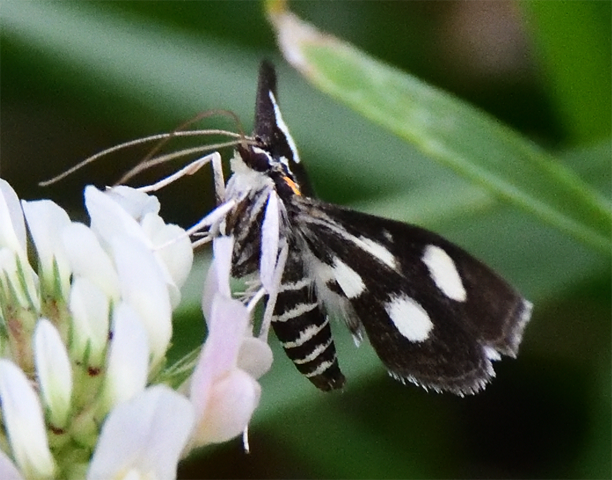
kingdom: Animalia
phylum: Arthropoda
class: Insecta
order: Lepidoptera
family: Crambidae
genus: Anania
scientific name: Anania funebris
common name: White-spotted sable moth
